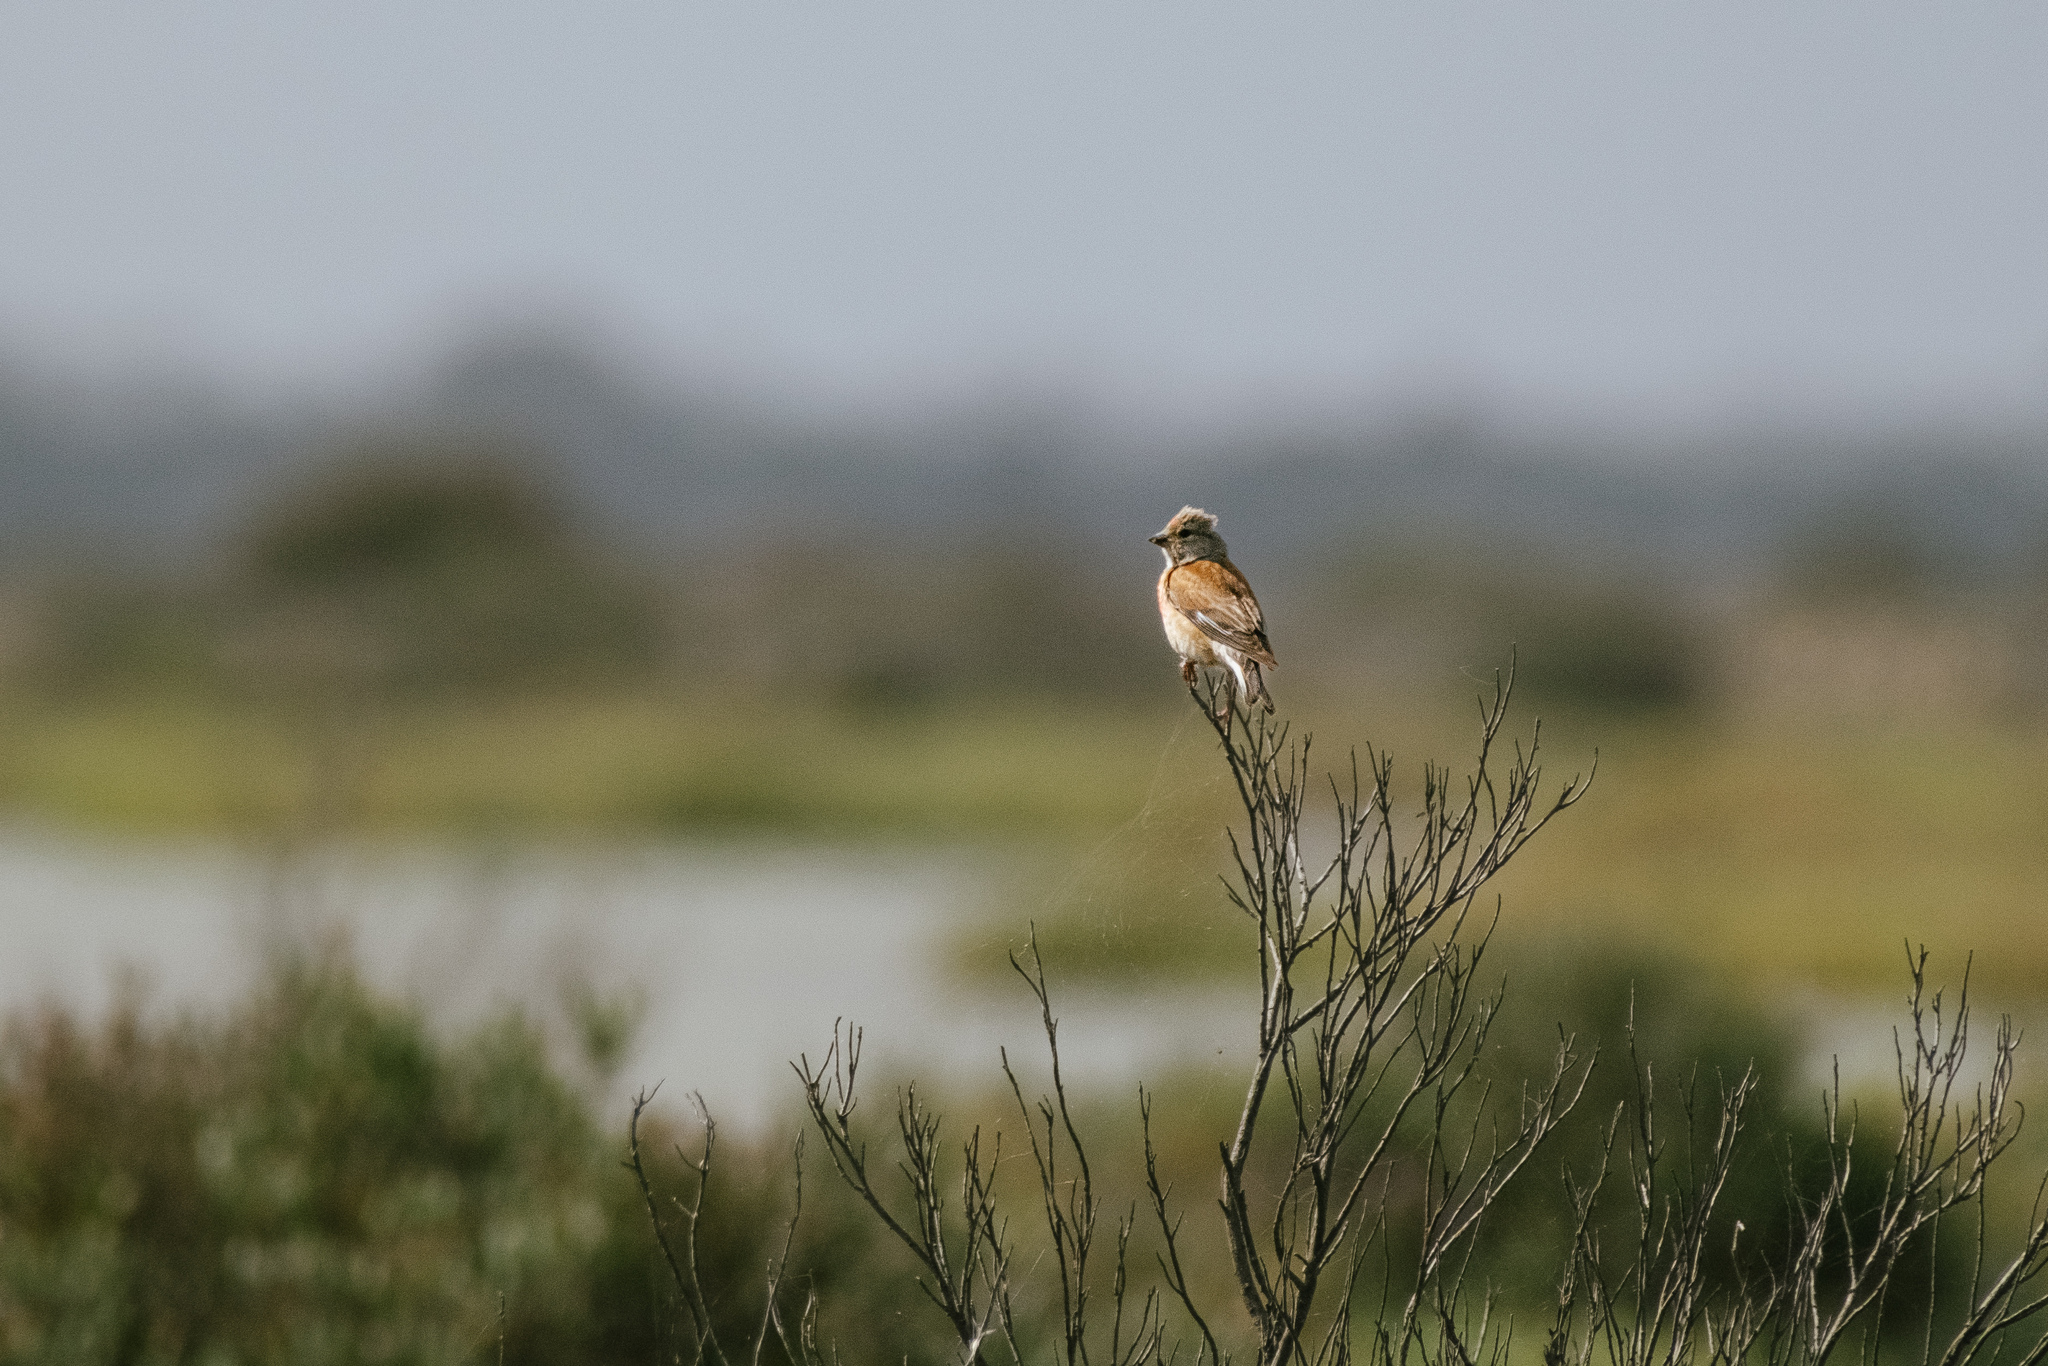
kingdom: Animalia
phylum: Chordata
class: Aves
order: Passeriformes
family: Fringillidae
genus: Linaria
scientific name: Linaria cannabina
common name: Common linnet
